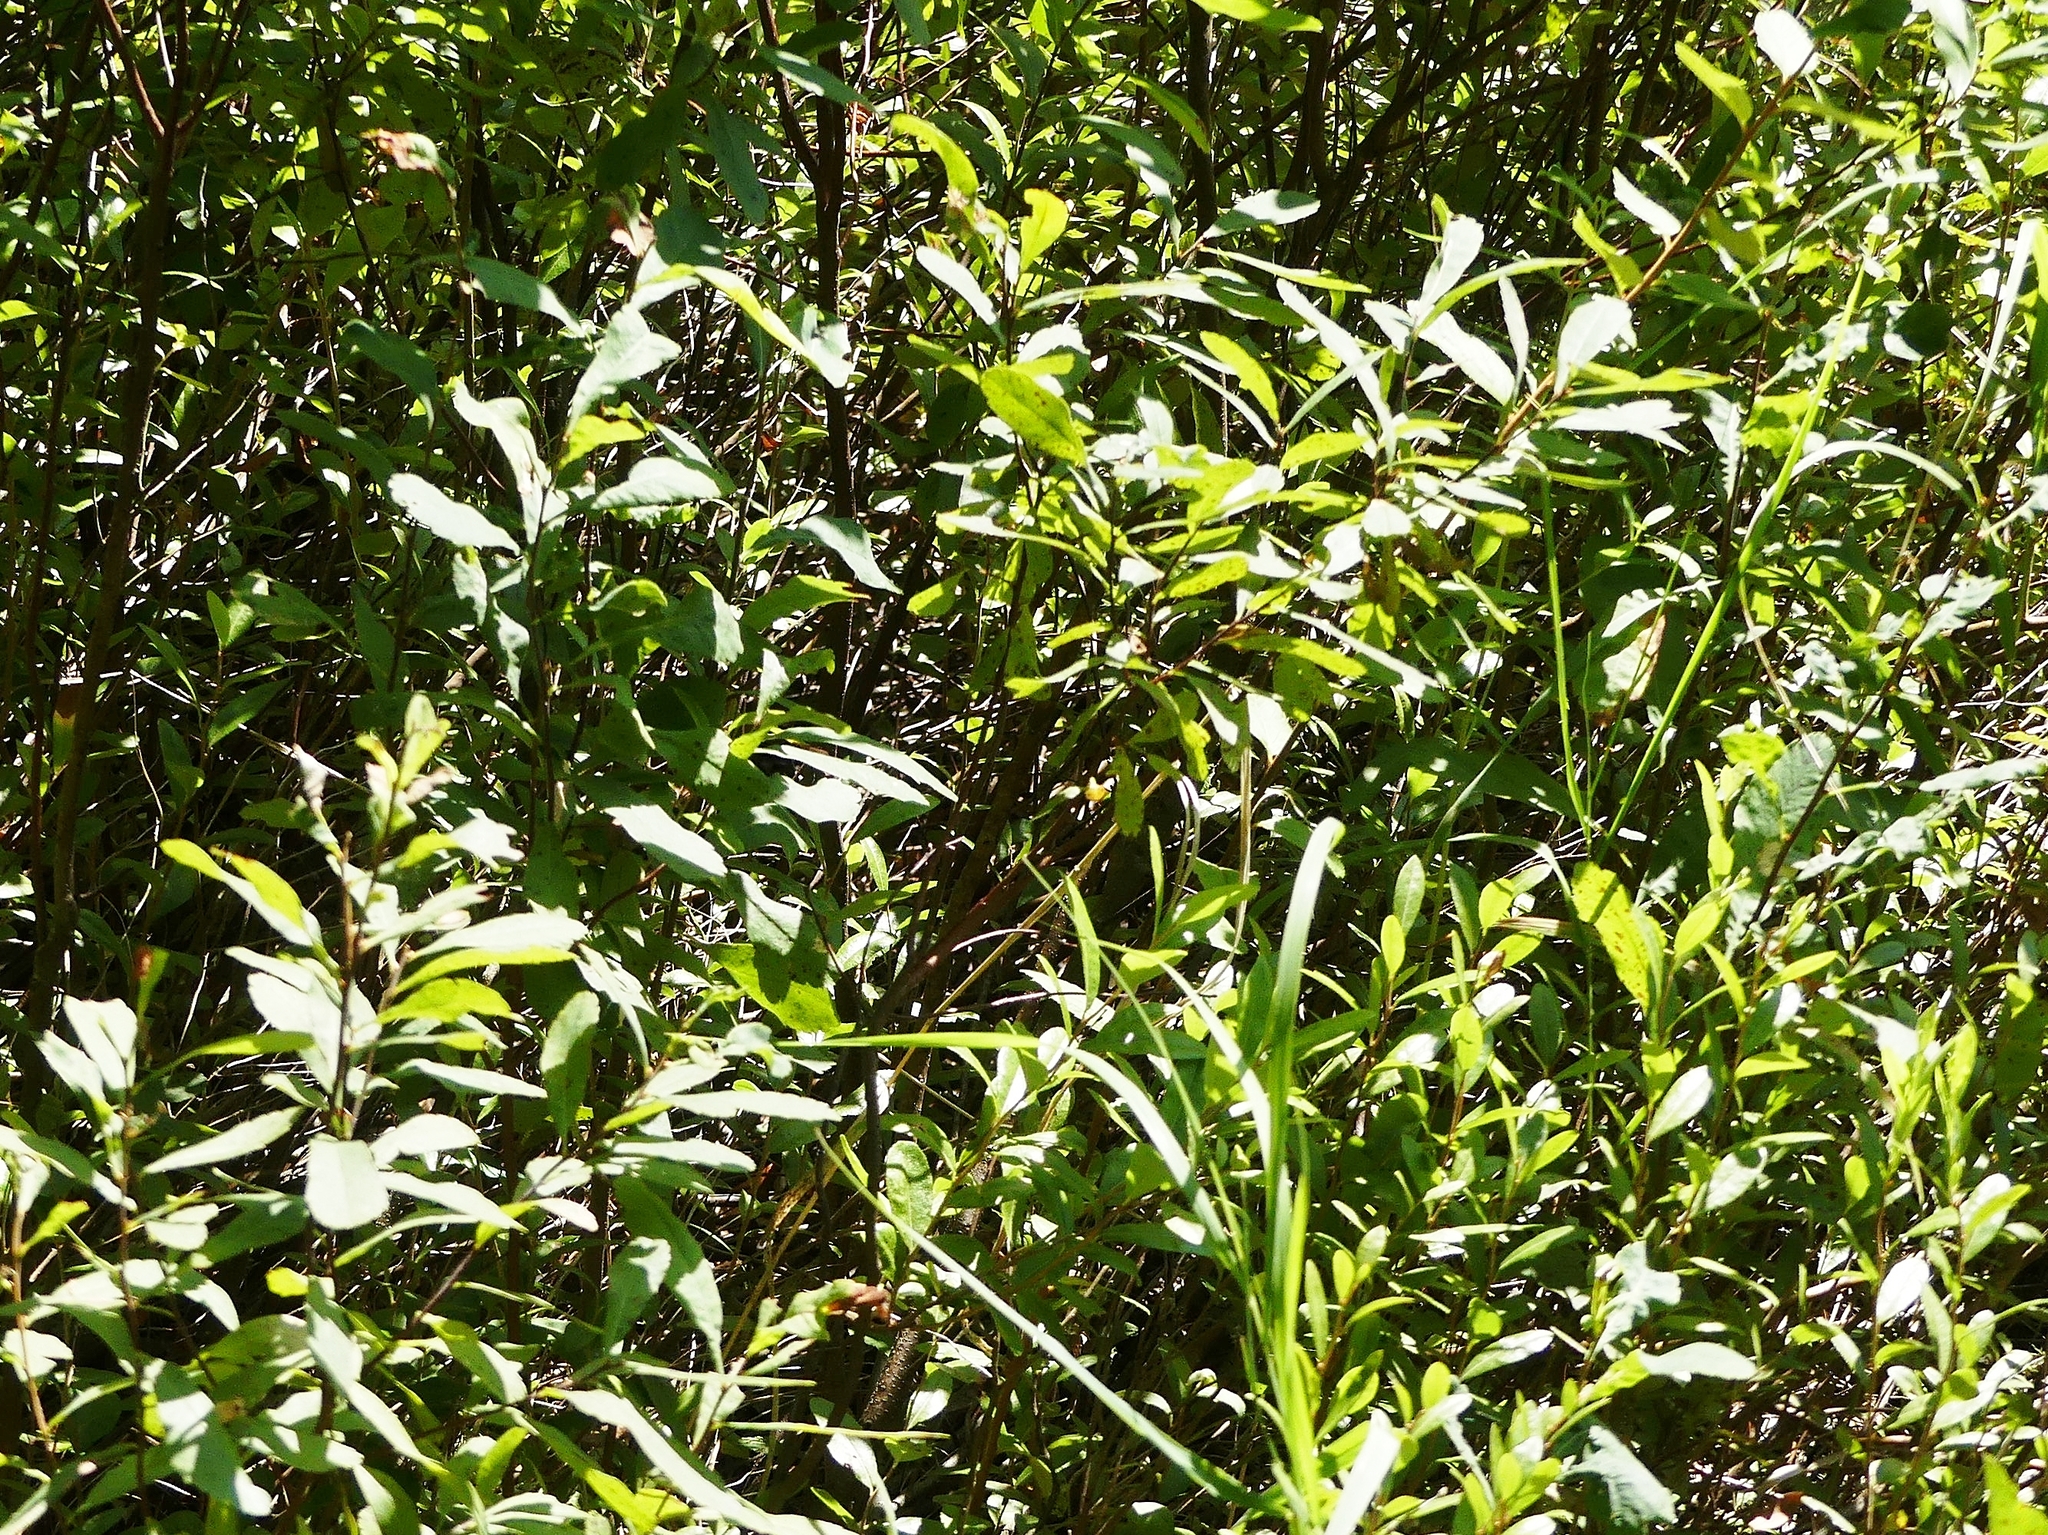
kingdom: Plantae
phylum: Tracheophyta
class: Magnoliopsida
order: Fagales
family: Myricaceae
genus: Myrica
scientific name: Myrica gale
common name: Sweet gale
